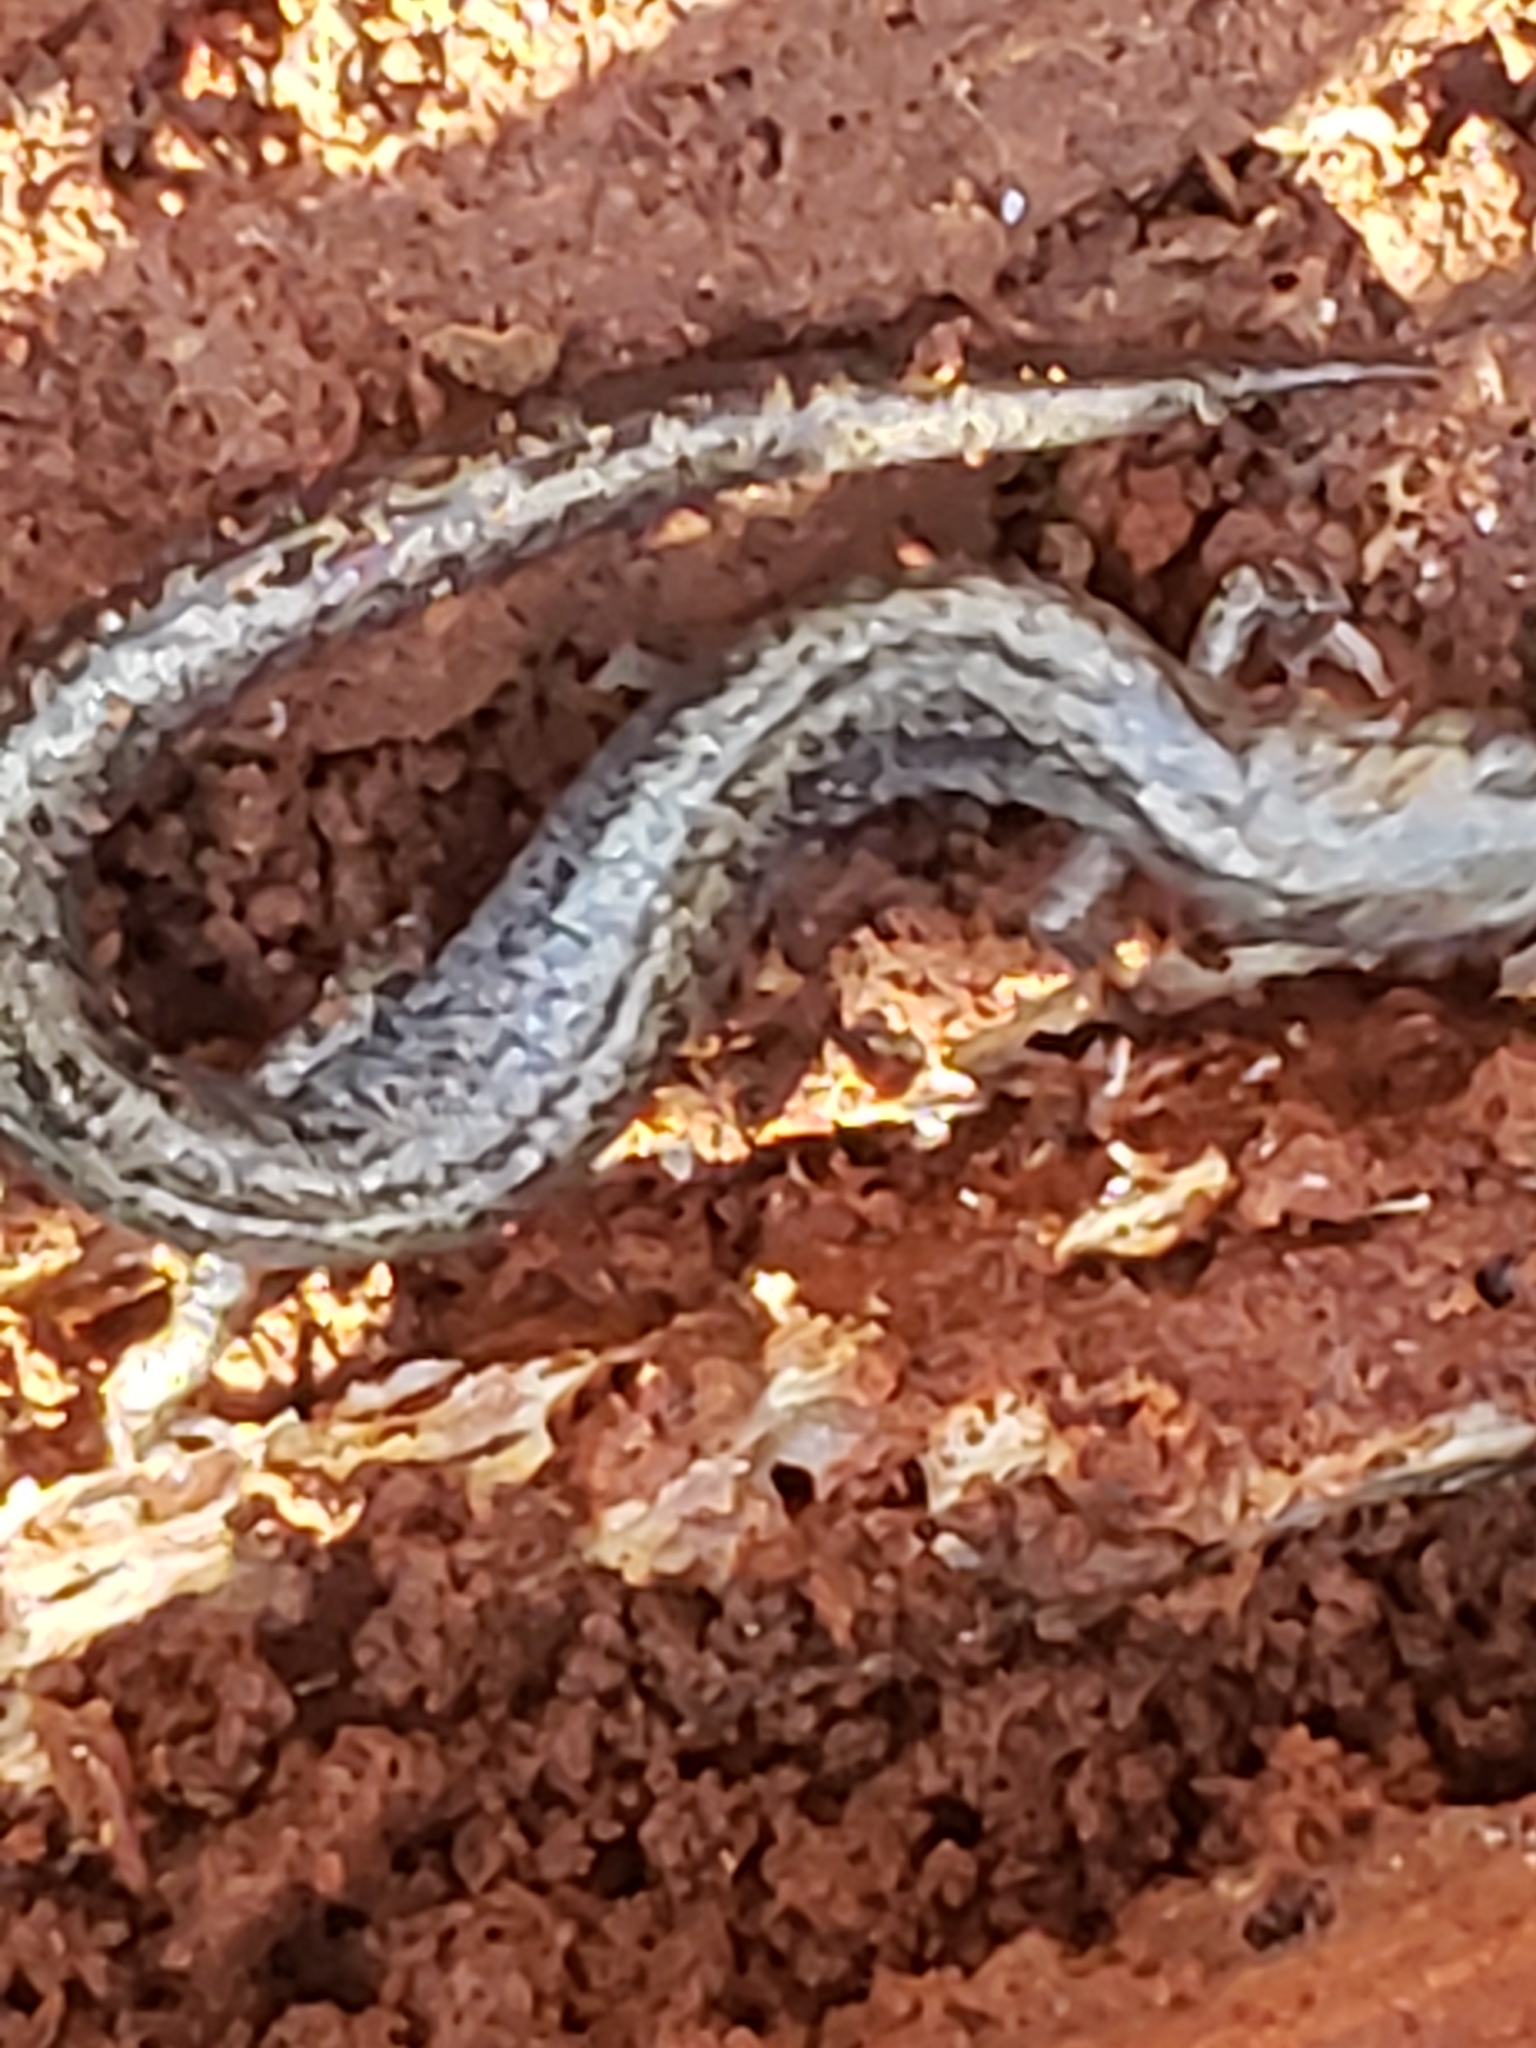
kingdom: Animalia
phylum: Chordata
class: Amphibia
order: Caudata
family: Plethodontidae
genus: Plethodon
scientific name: Plethodon cinereus
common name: Redback salamander
